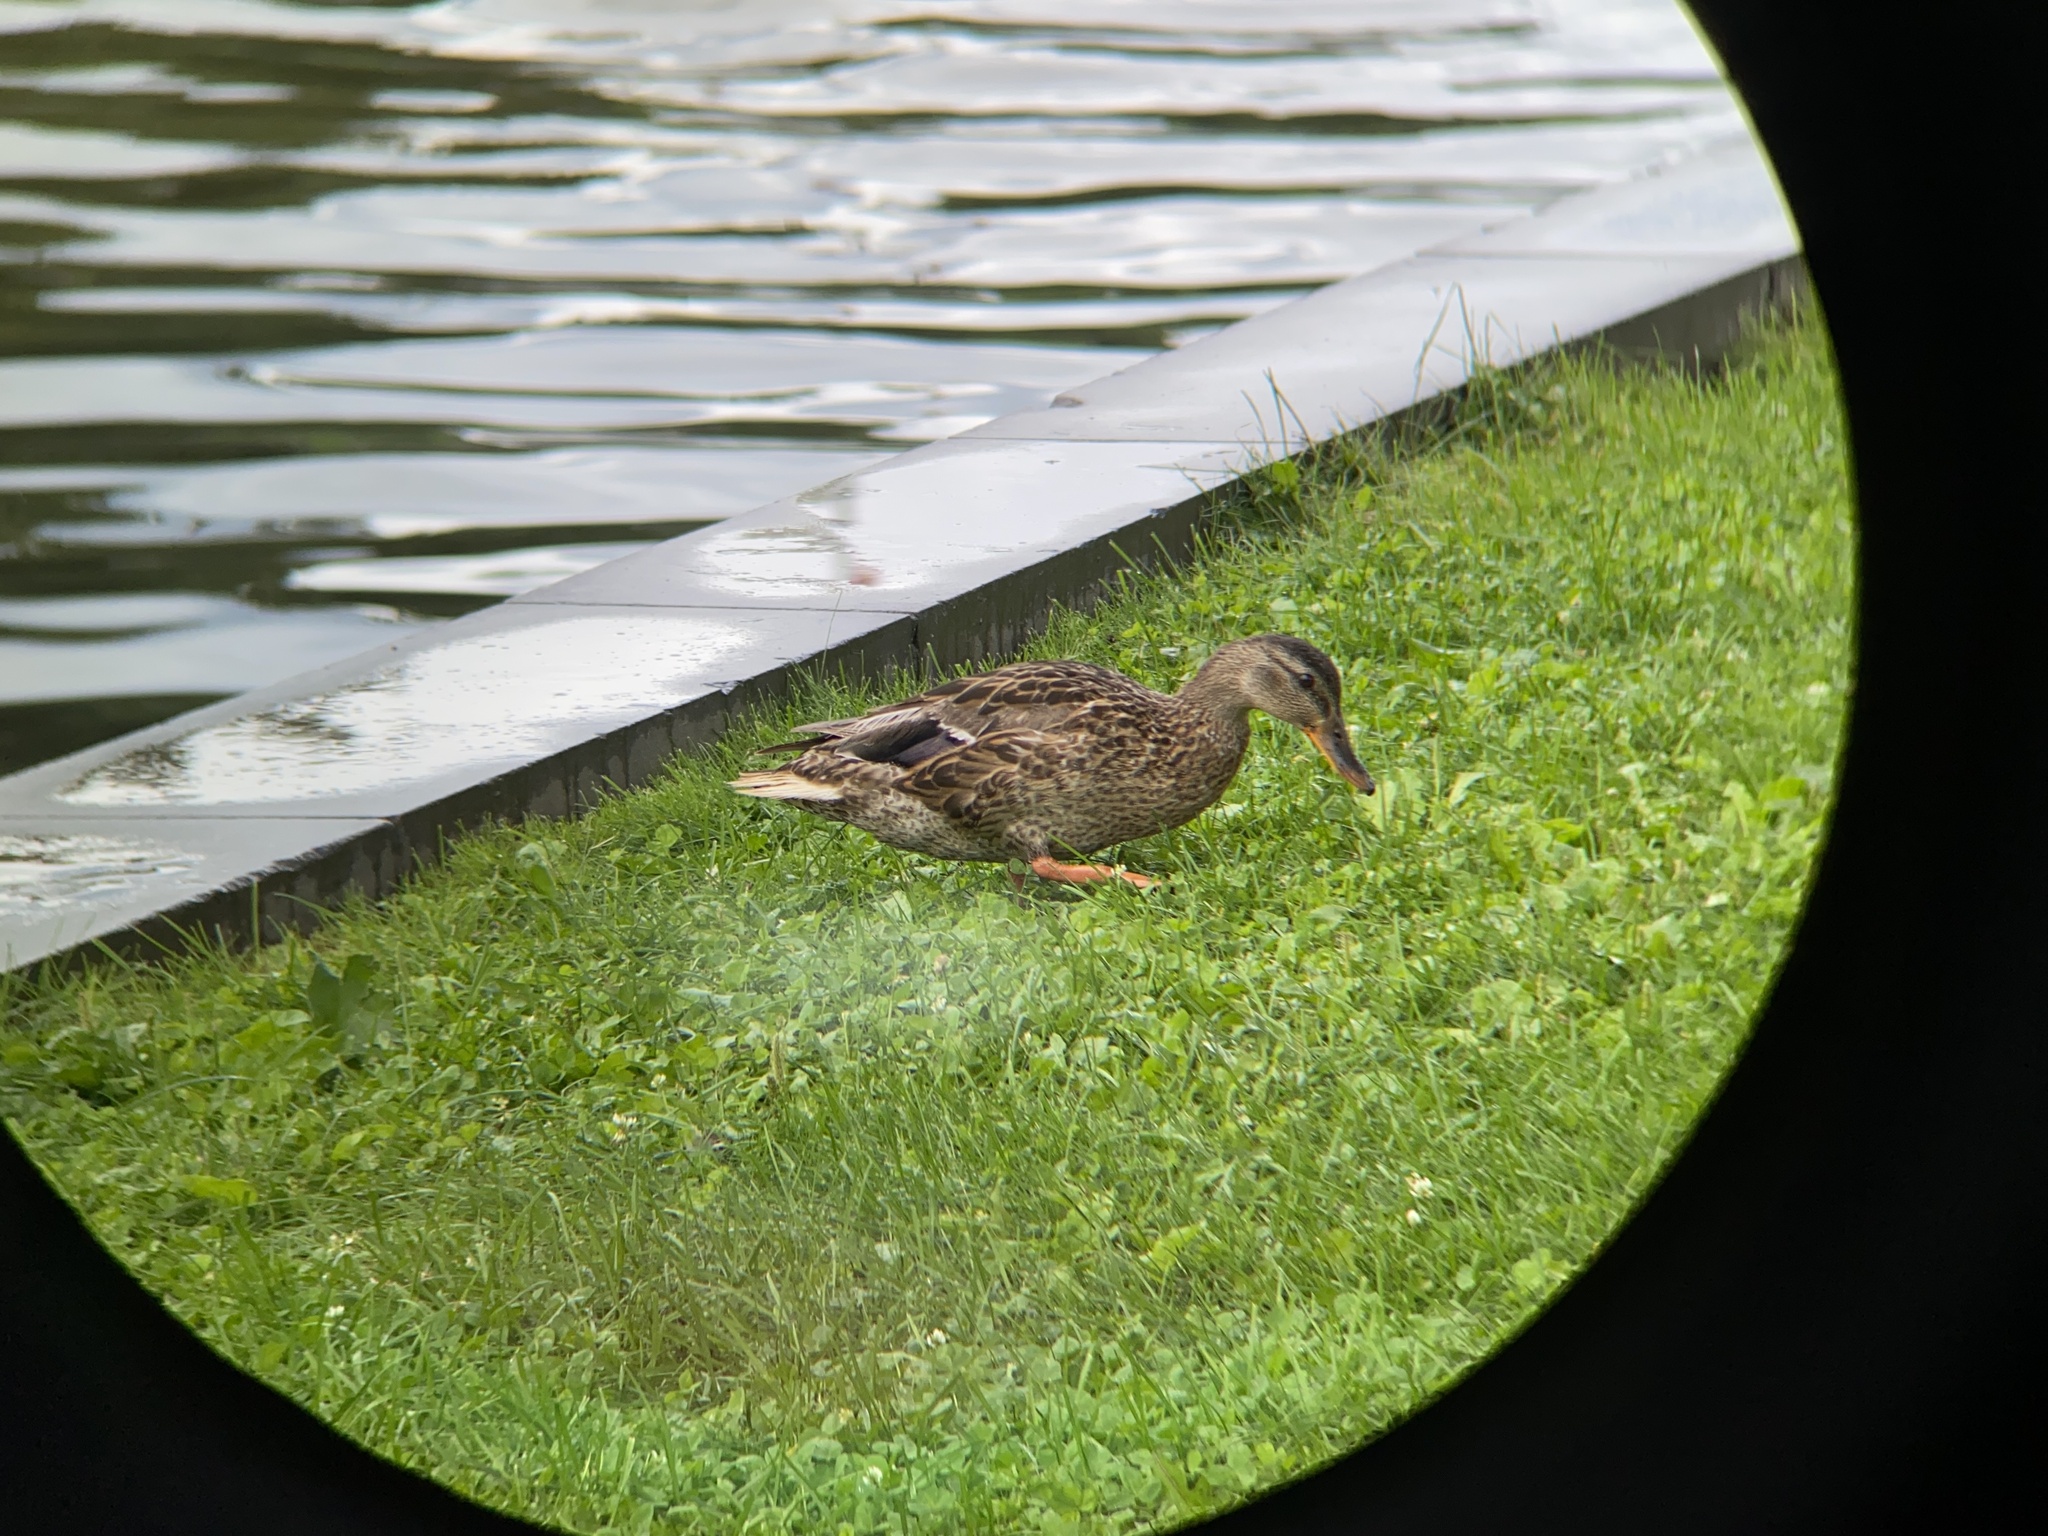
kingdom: Animalia
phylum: Chordata
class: Aves
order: Anseriformes
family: Anatidae
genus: Anas
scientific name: Anas platyrhynchos
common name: Mallard
